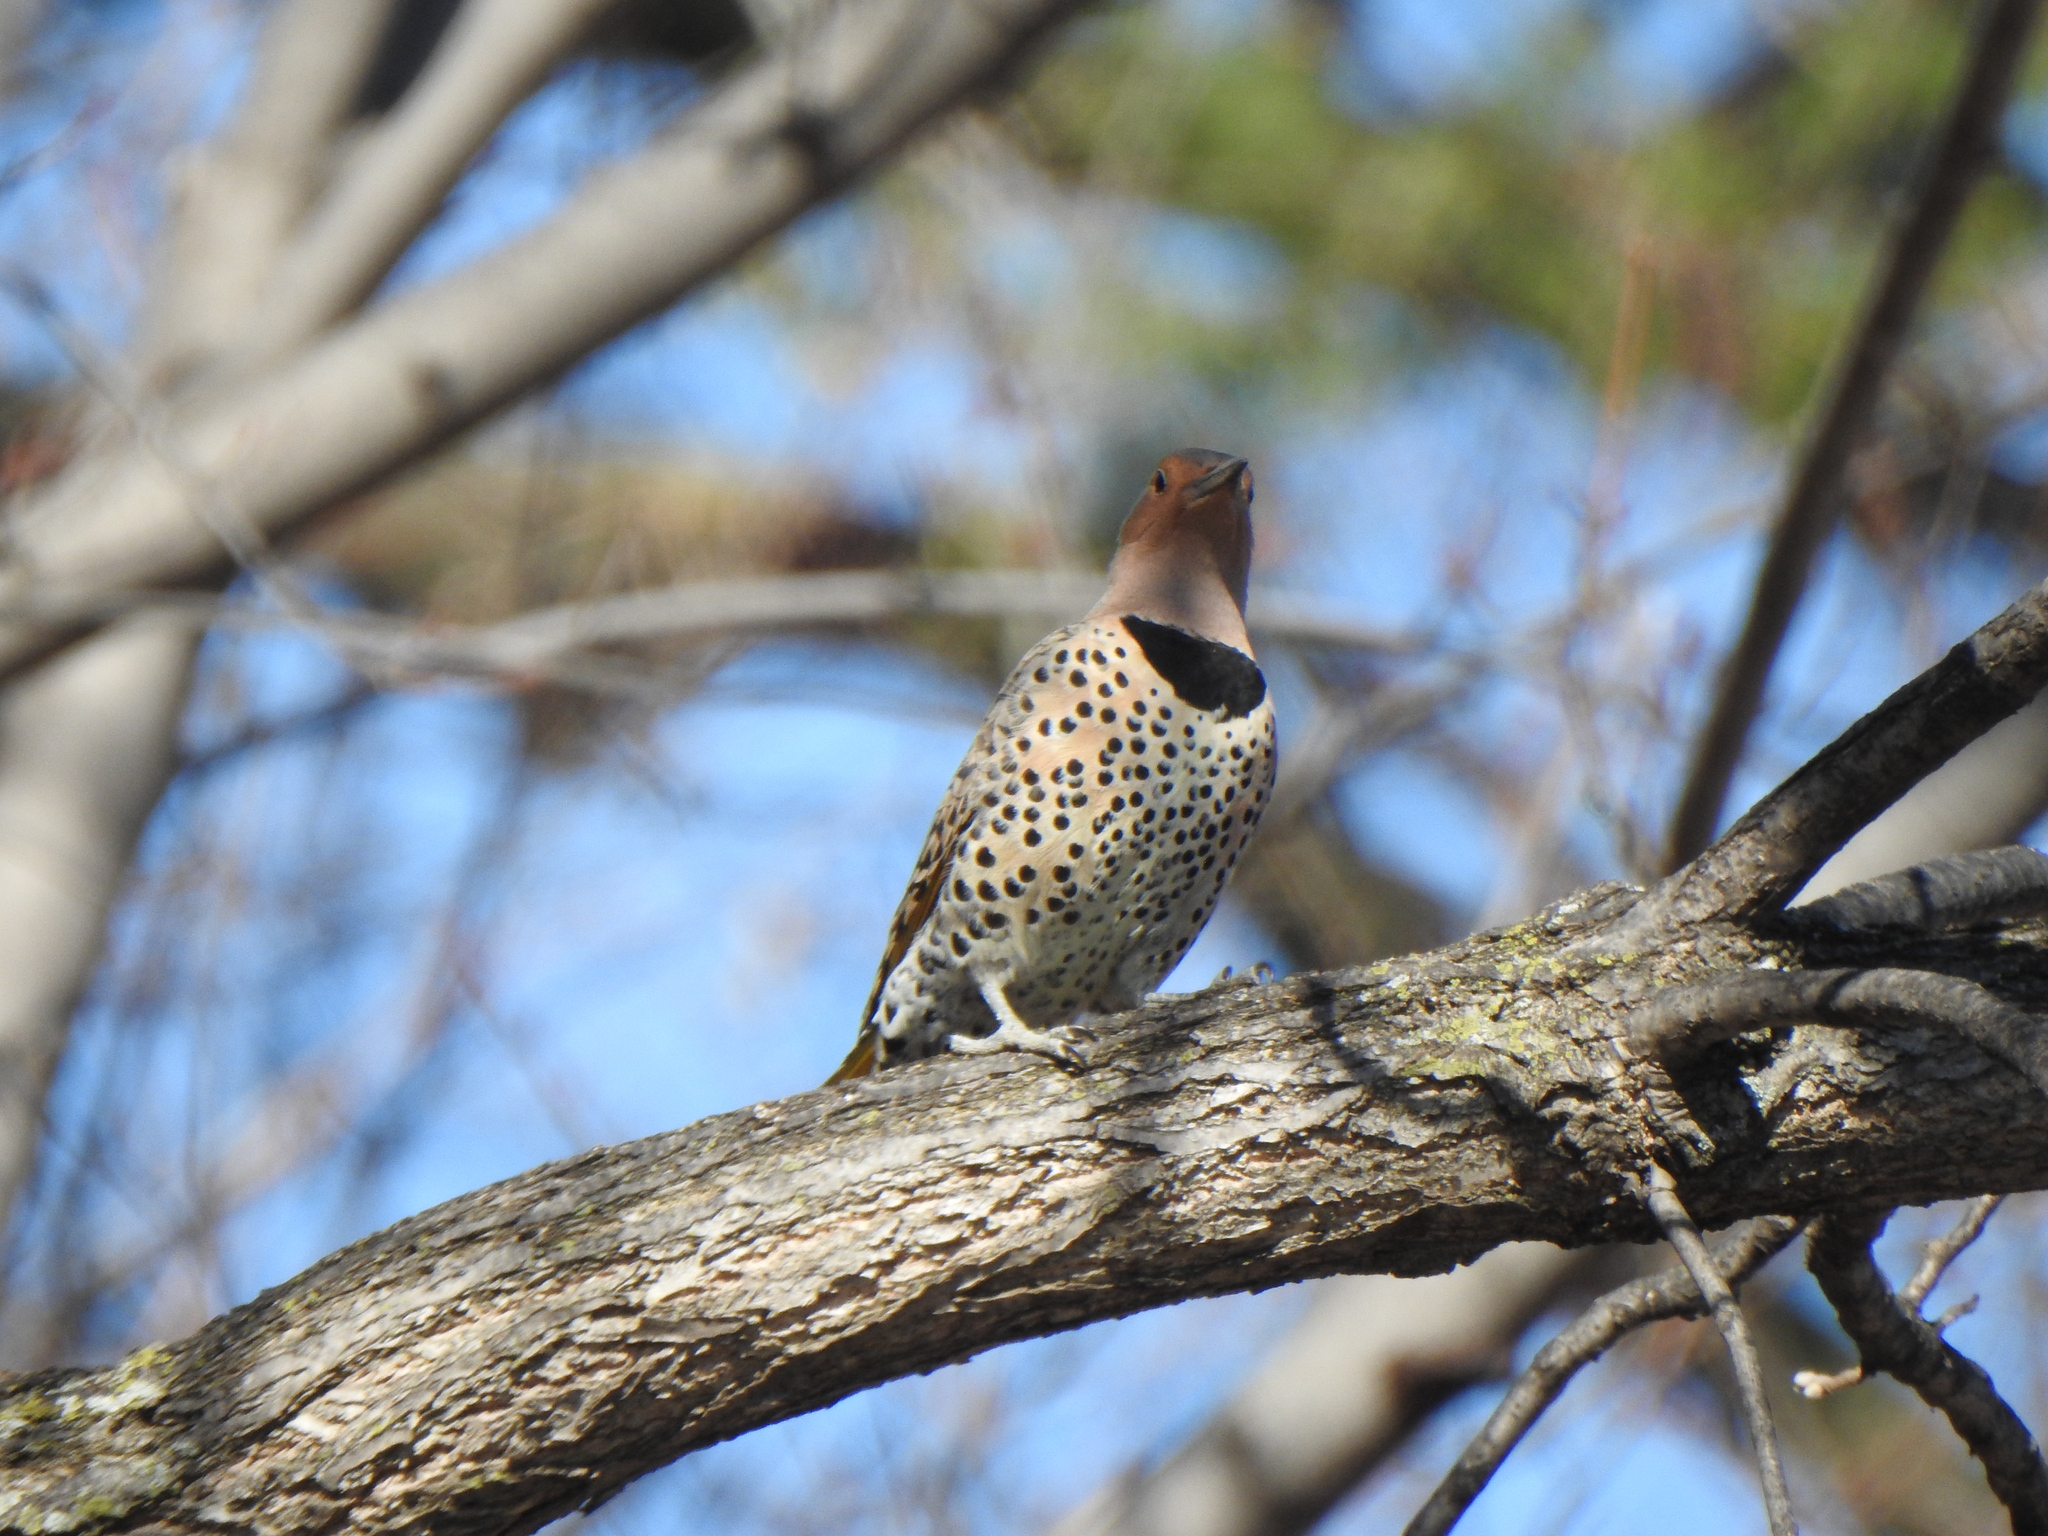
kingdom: Animalia
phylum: Chordata
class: Aves
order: Piciformes
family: Picidae
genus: Colaptes
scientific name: Colaptes auratus
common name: Northern flicker
